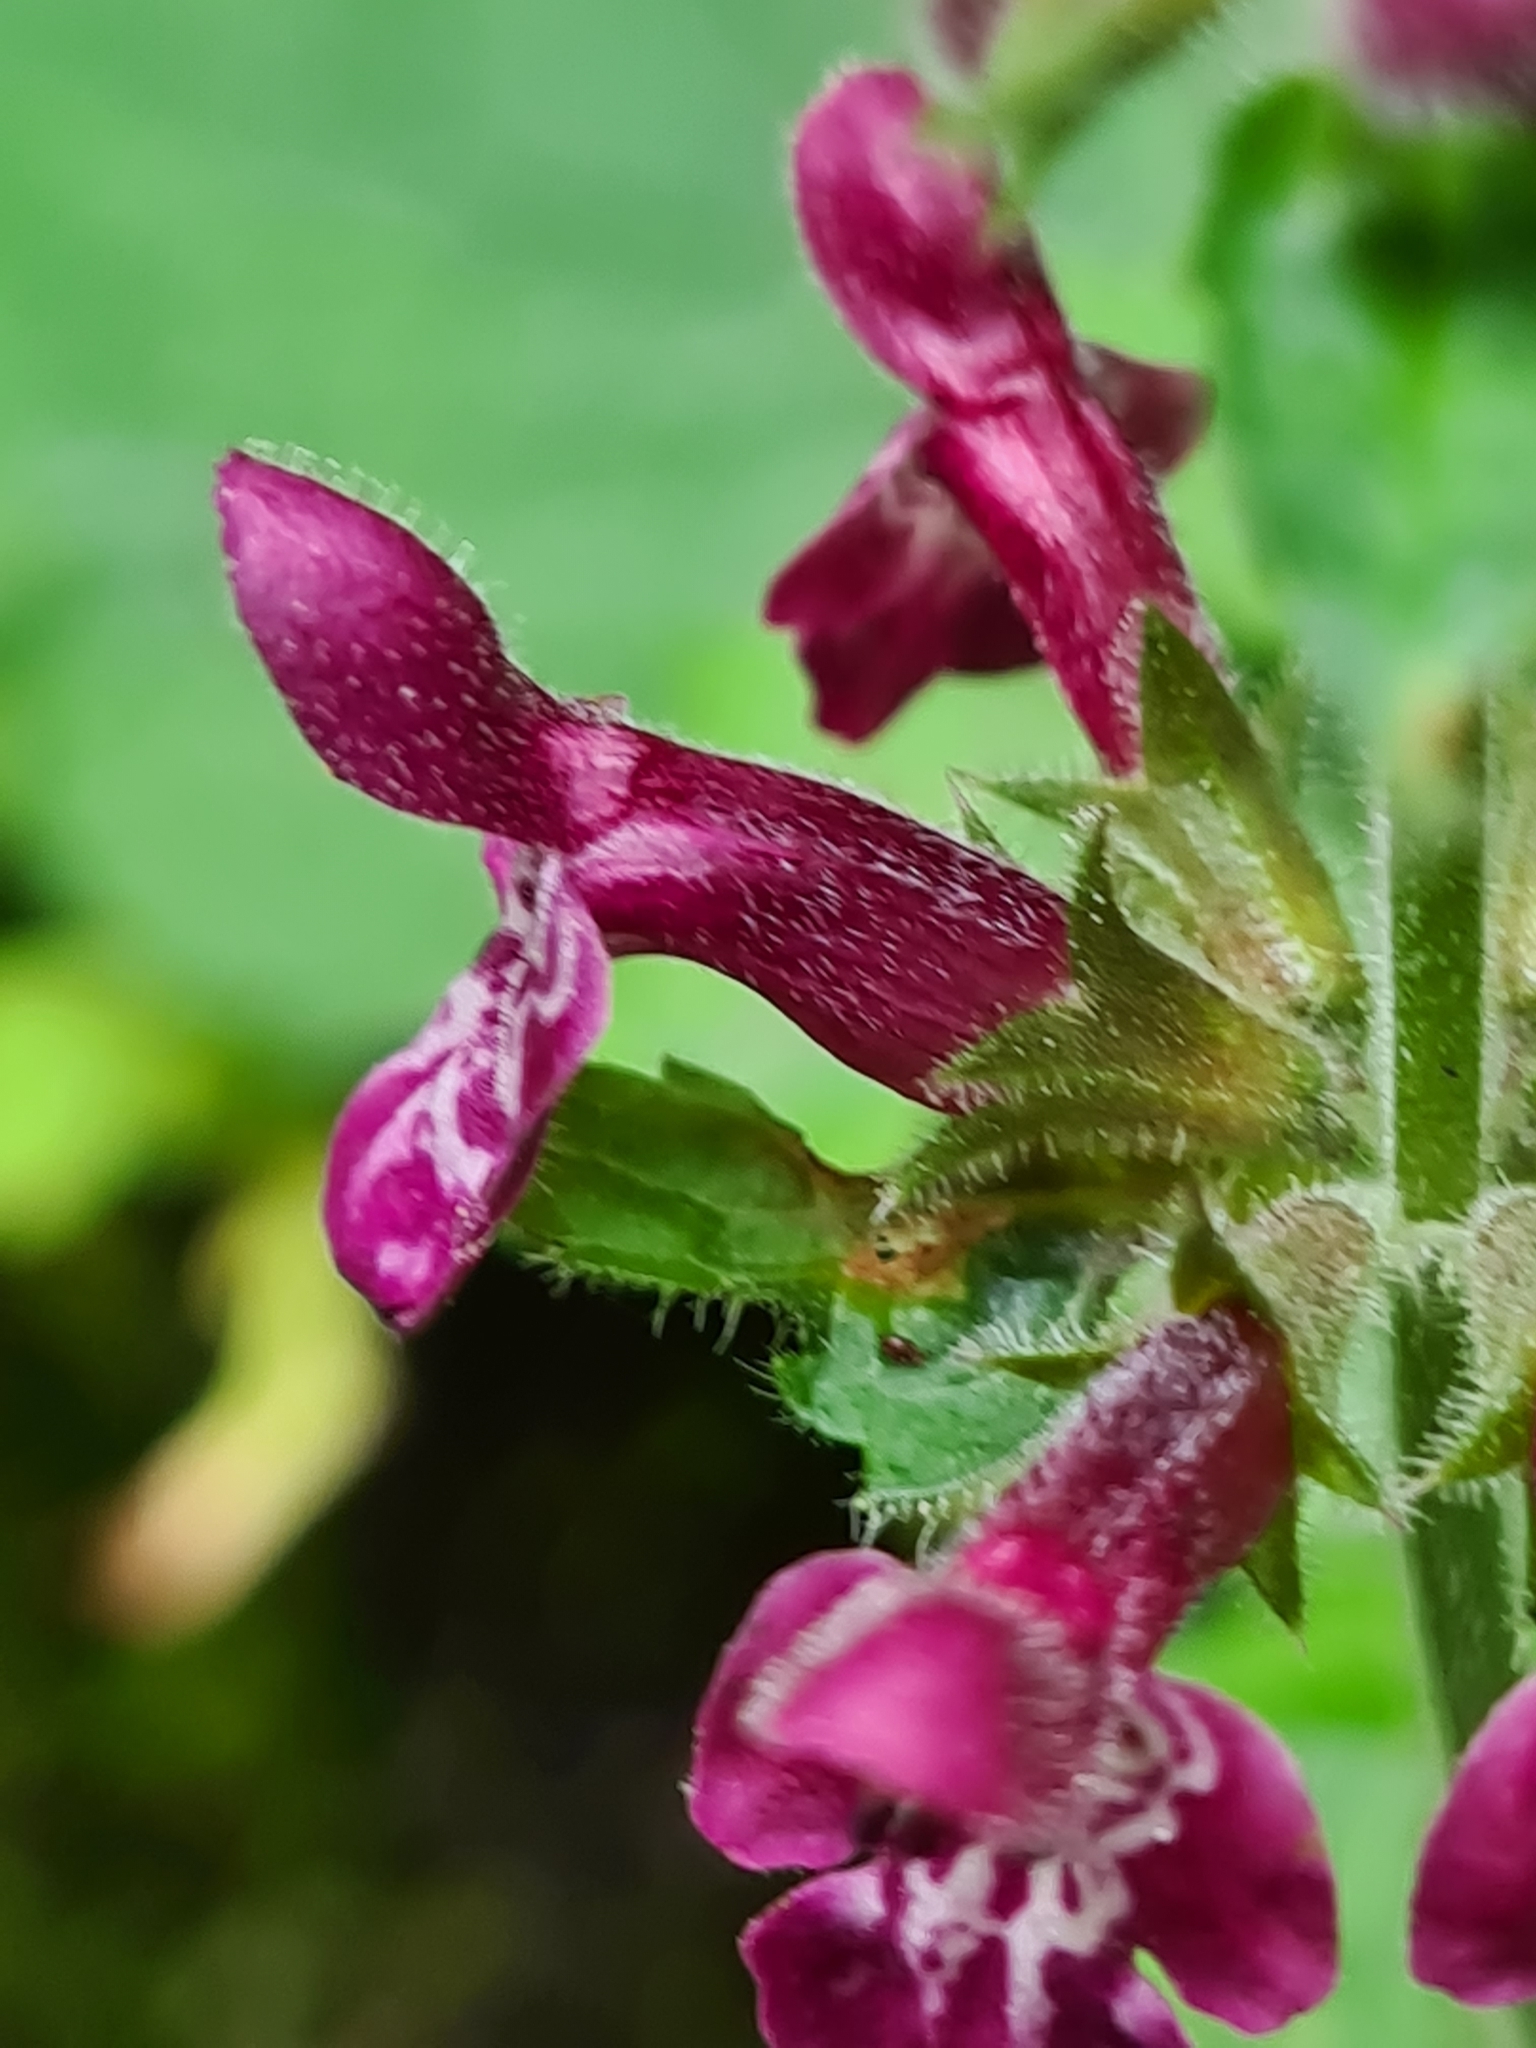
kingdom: Plantae
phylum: Tracheophyta
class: Magnoliopsida
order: Lamiales
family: Lamiaceae
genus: Stachys
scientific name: Stachys sylvatica
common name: Hedge woundwort
